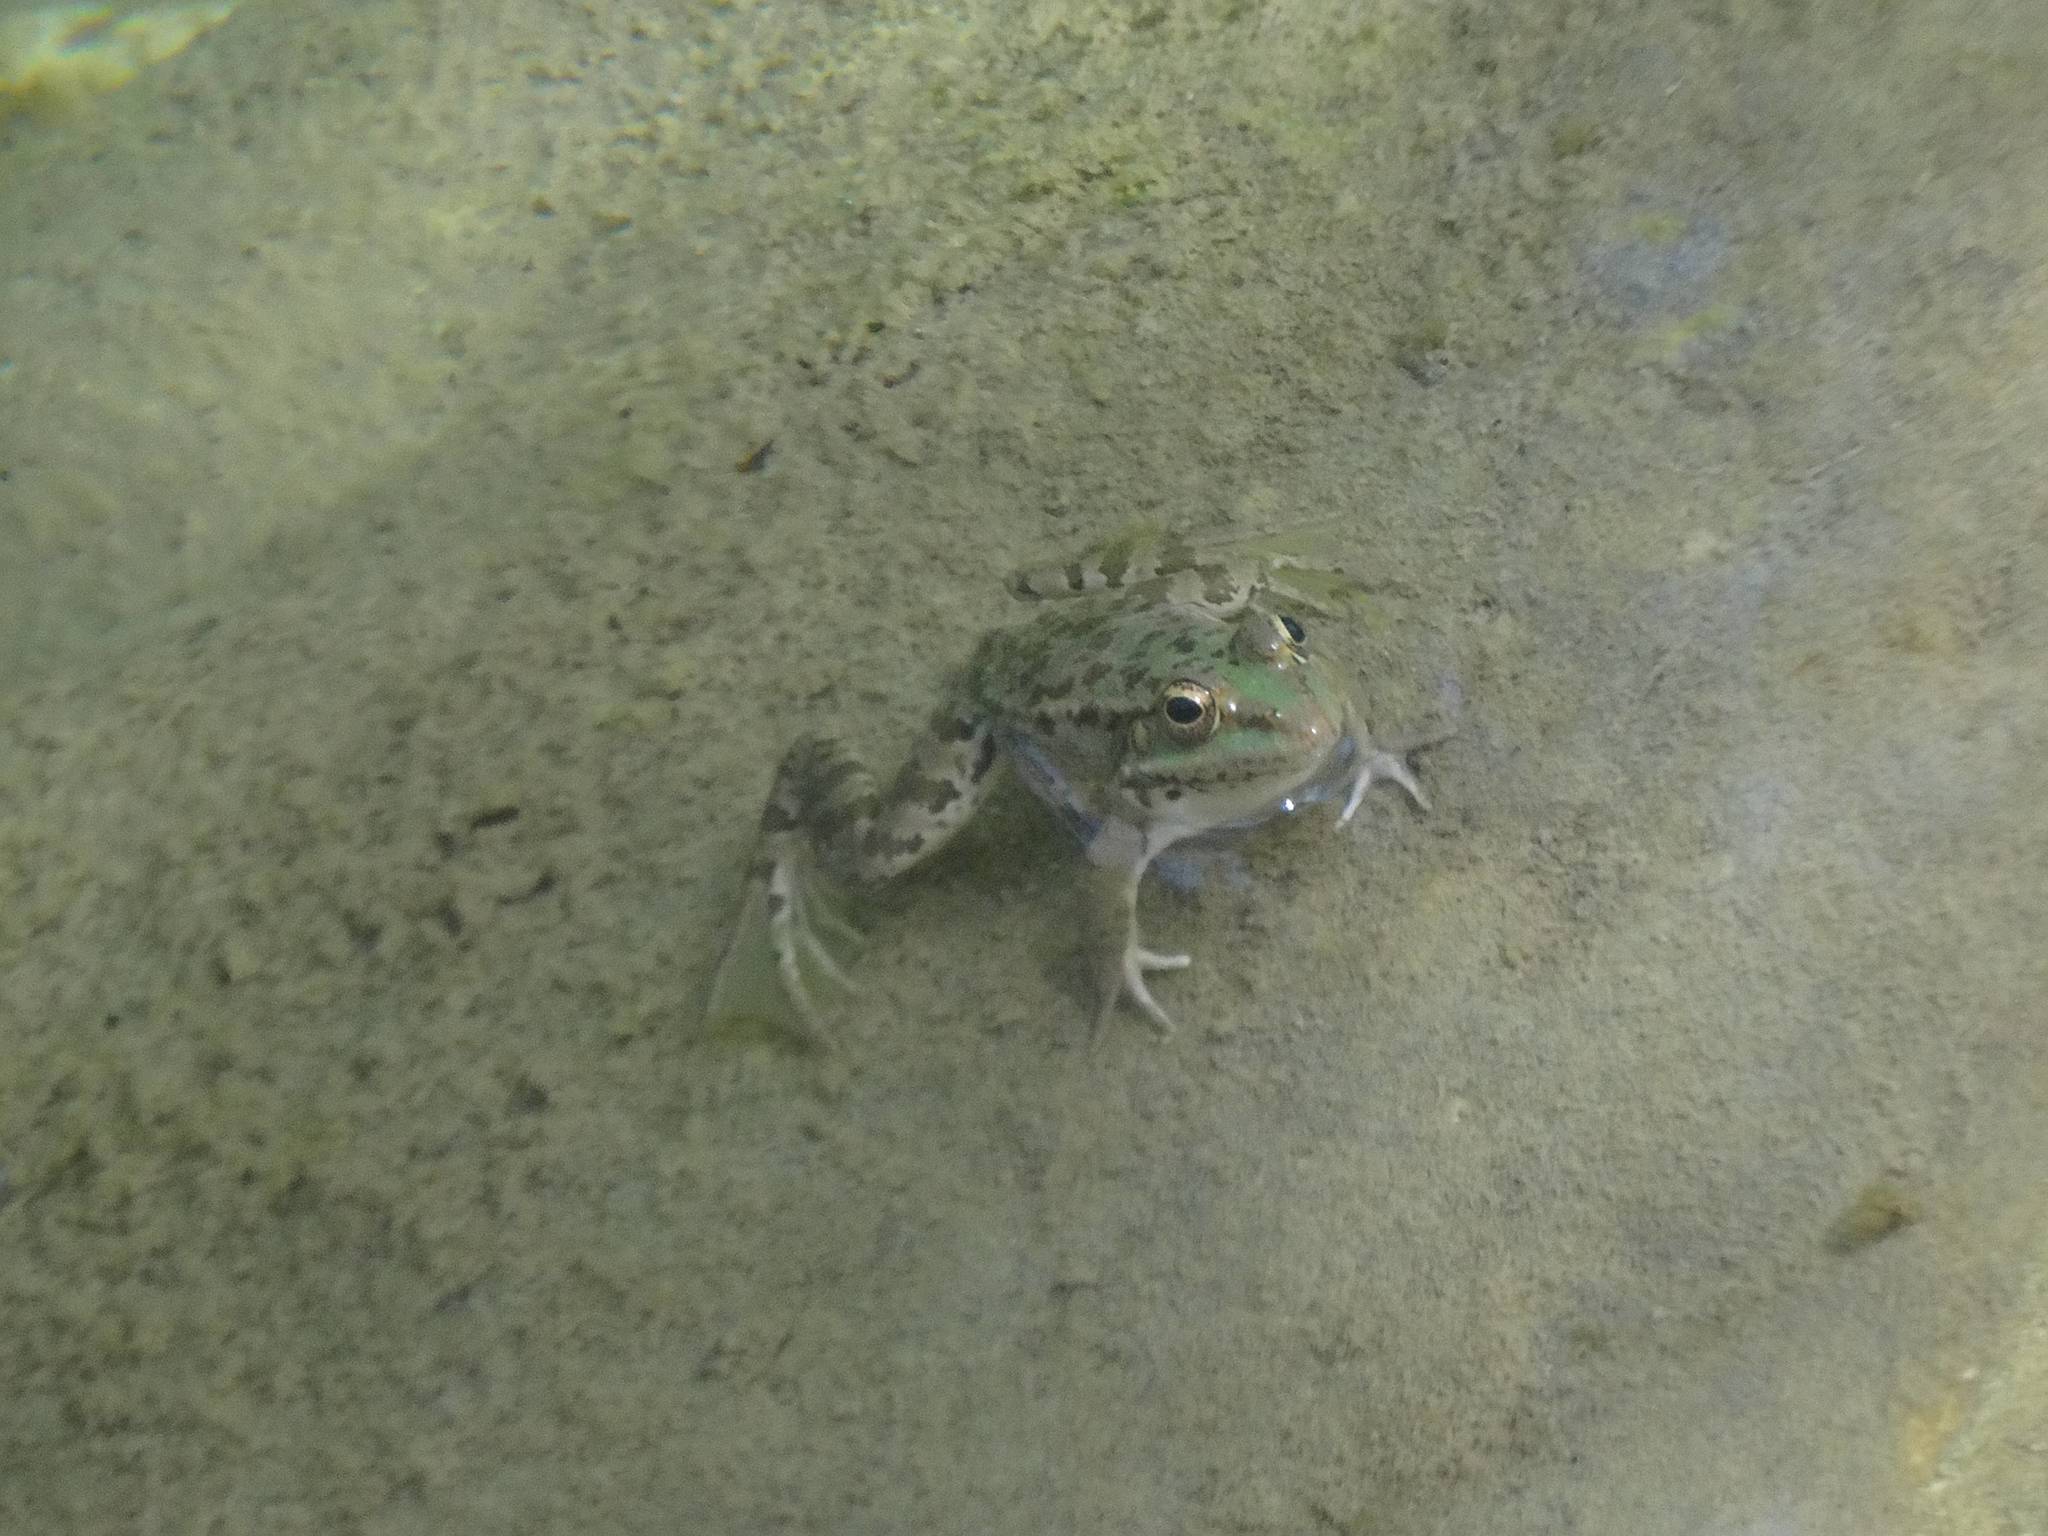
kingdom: Animalia
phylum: Chordata
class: Amphibia
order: Anura
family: Ranidae
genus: Pelophylax
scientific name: Pelophylax ridibundus
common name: Marsh frog
